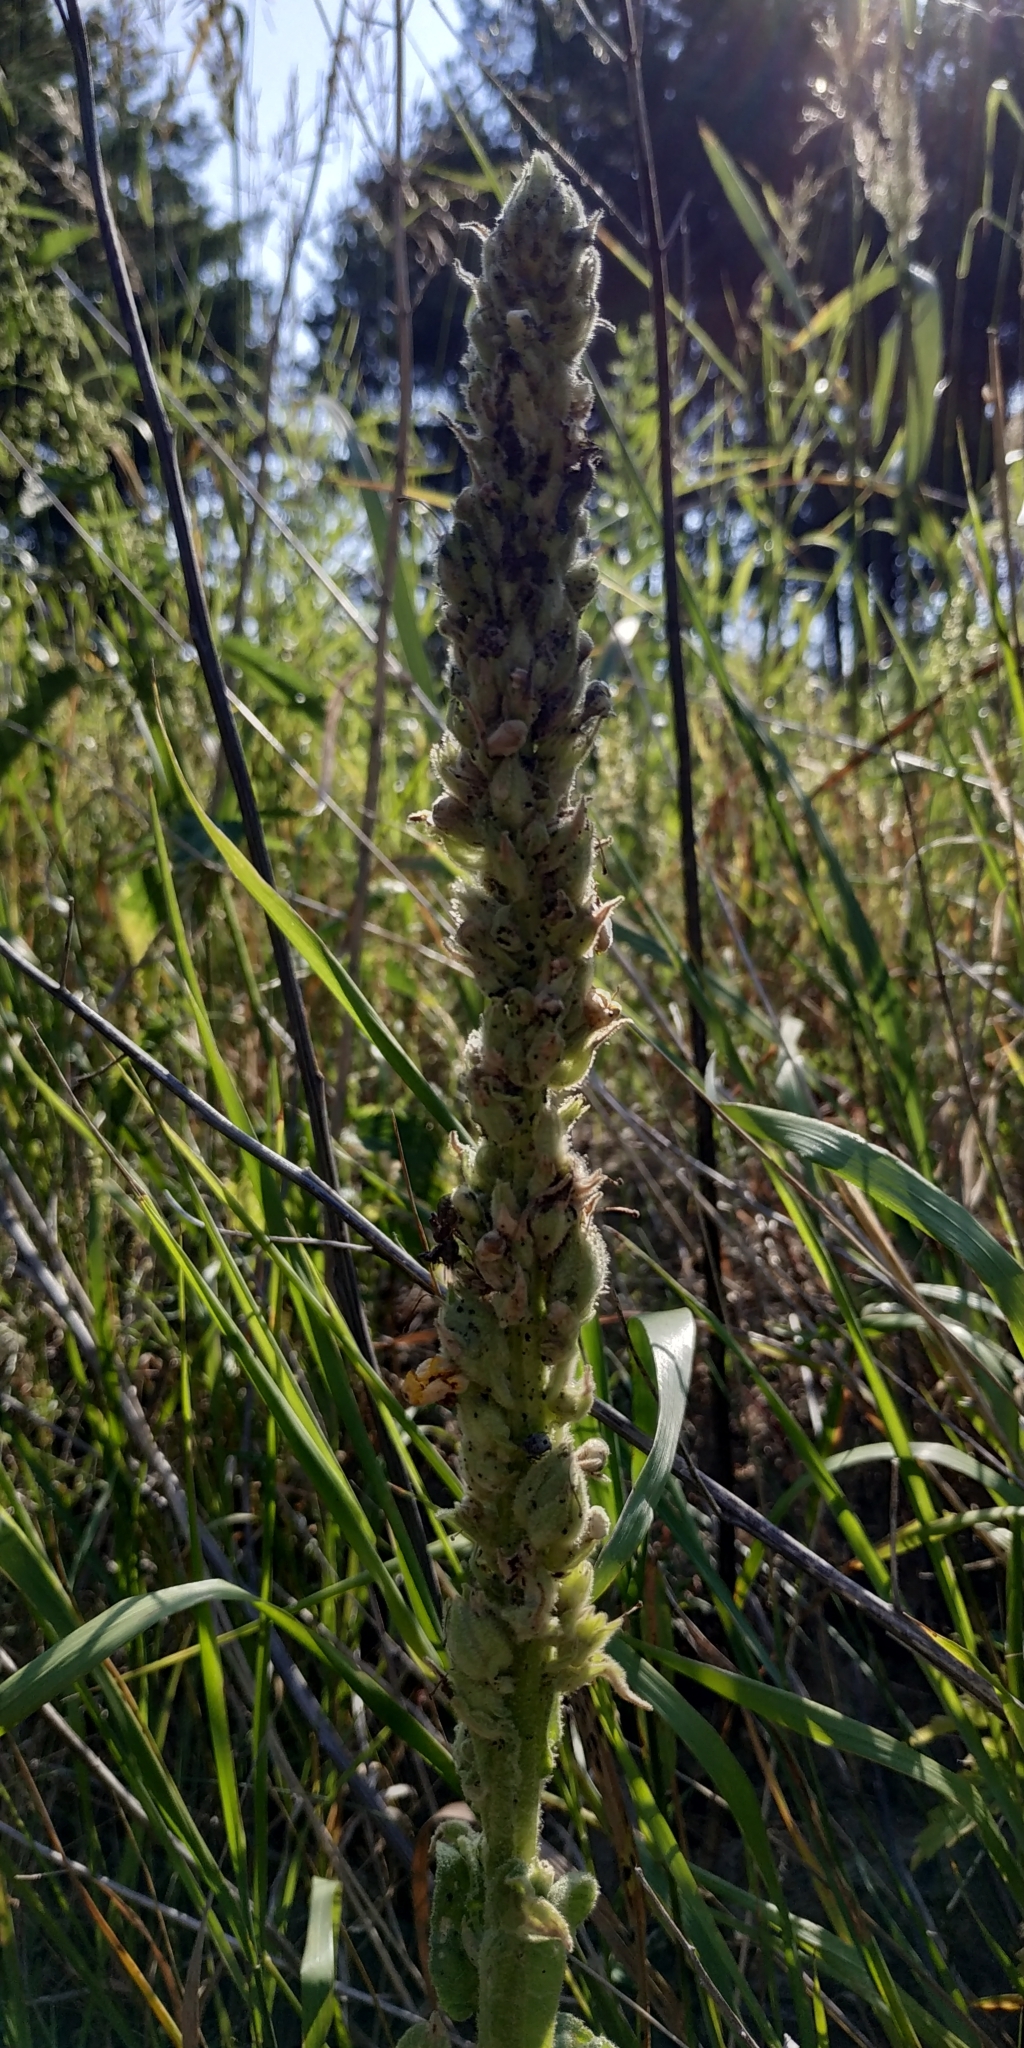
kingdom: Plantae
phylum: Tracheophyta
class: Magnoliopsida
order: Lamiales
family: Scrophulariaceae
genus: Verbascum
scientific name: Verbascum thapsus
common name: Common mullein
